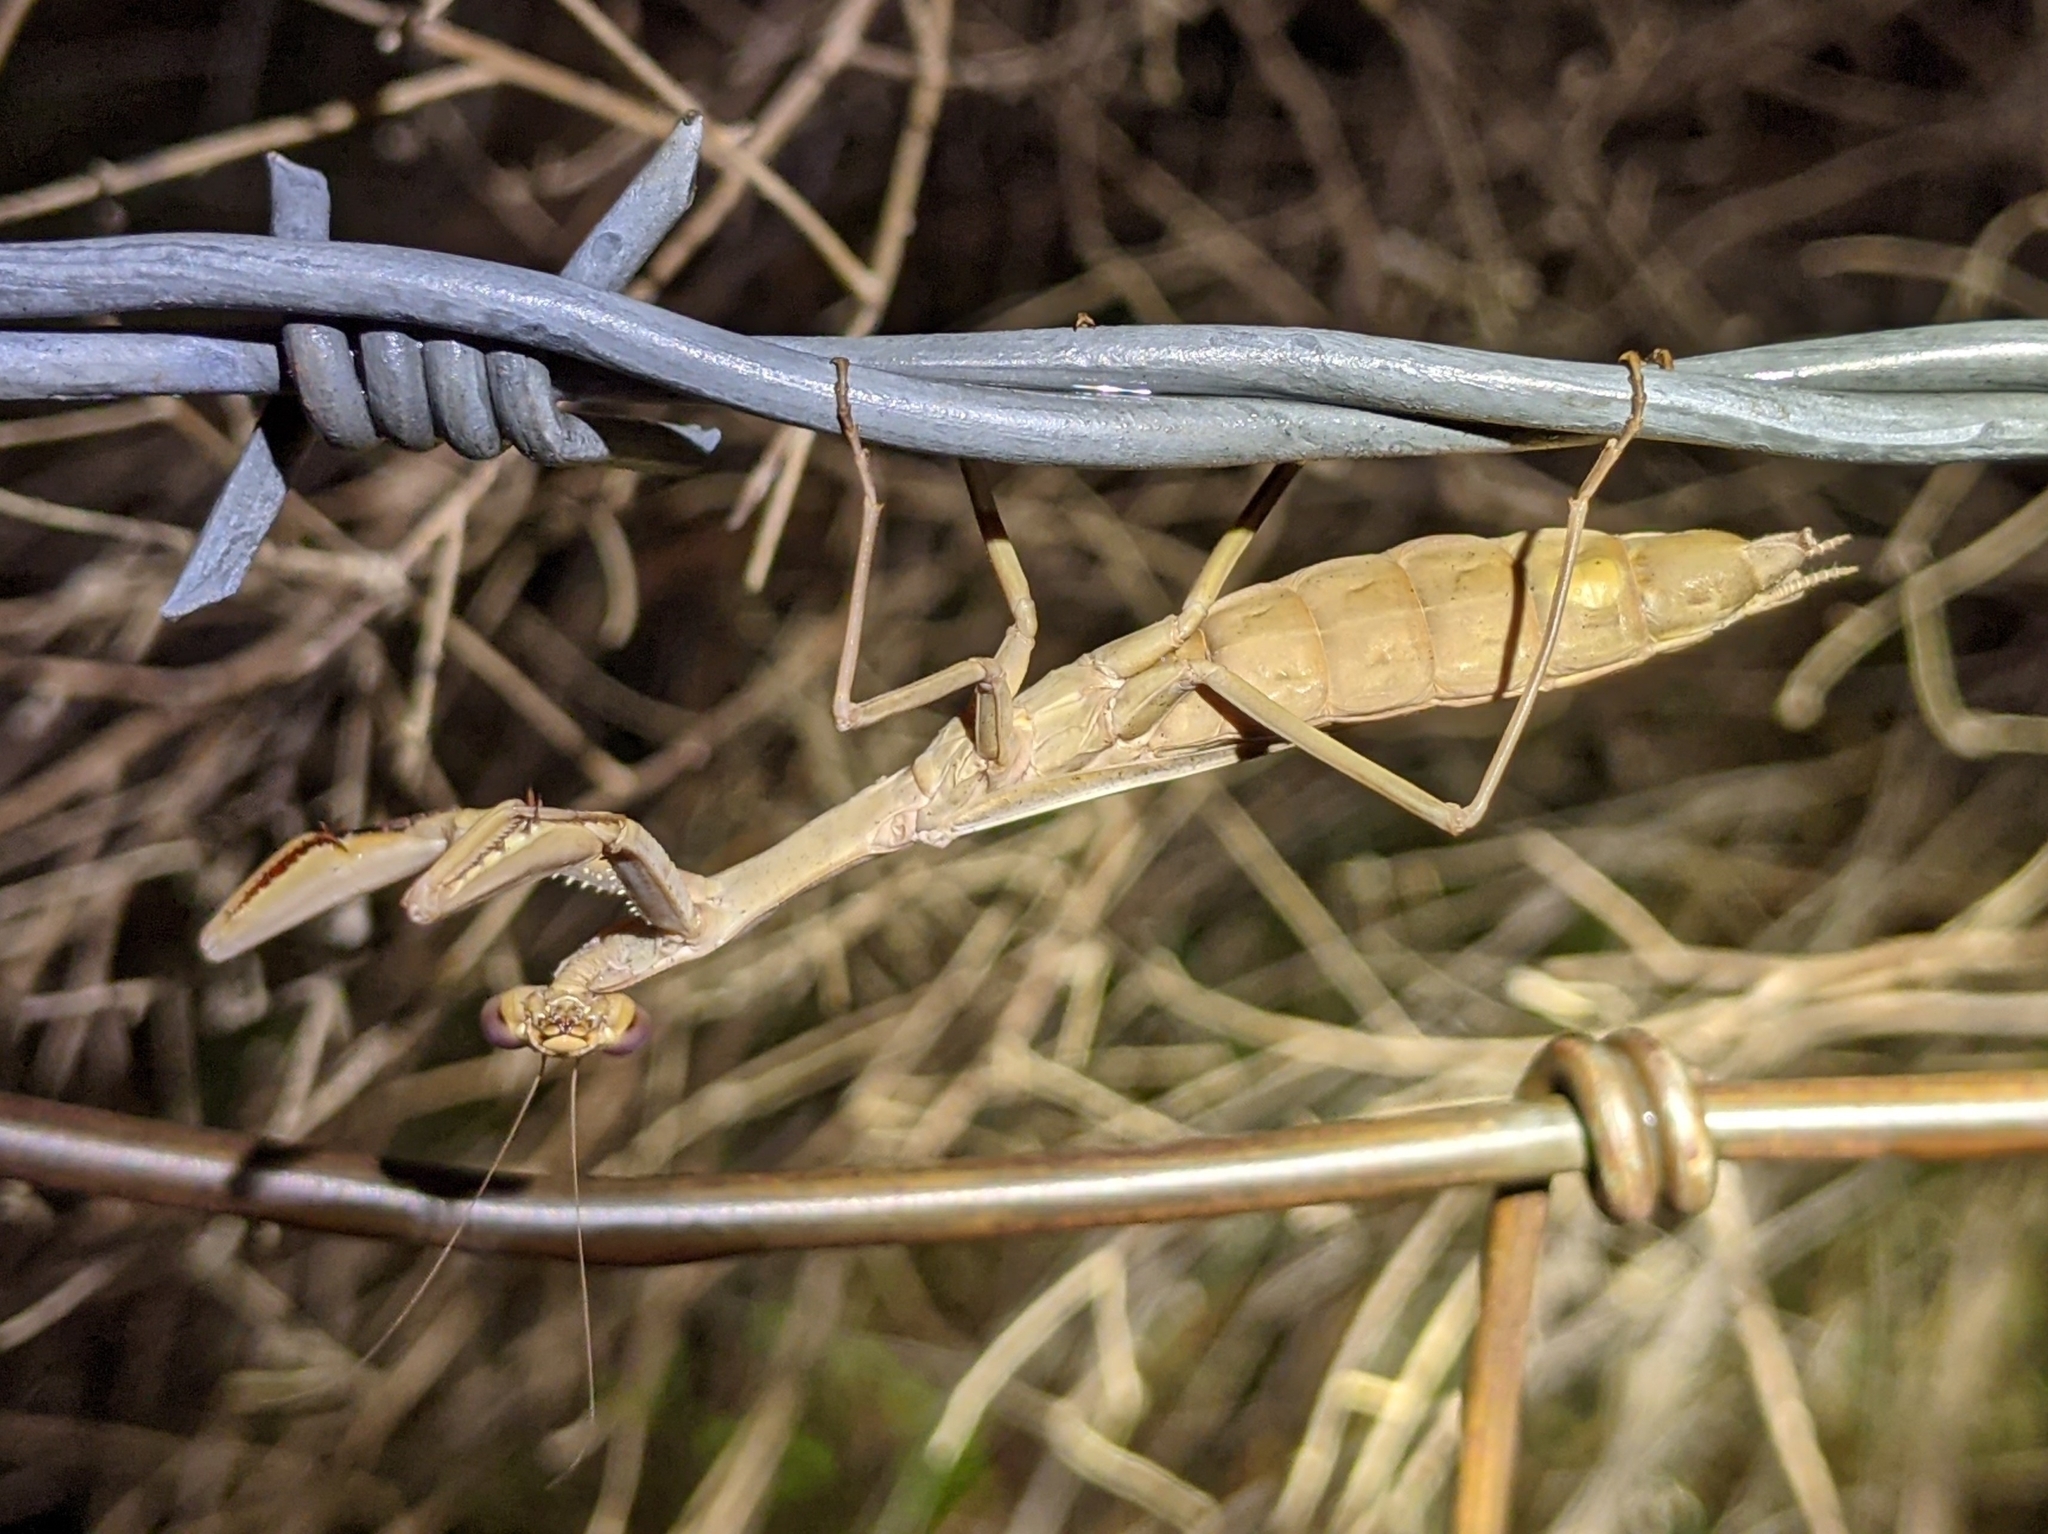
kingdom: Animalia
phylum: Arthropoda
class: Insecta
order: Mantodea
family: Eremiaphilidae
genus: Iris
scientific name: Iris oratoria
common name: Mediterranean mantis
